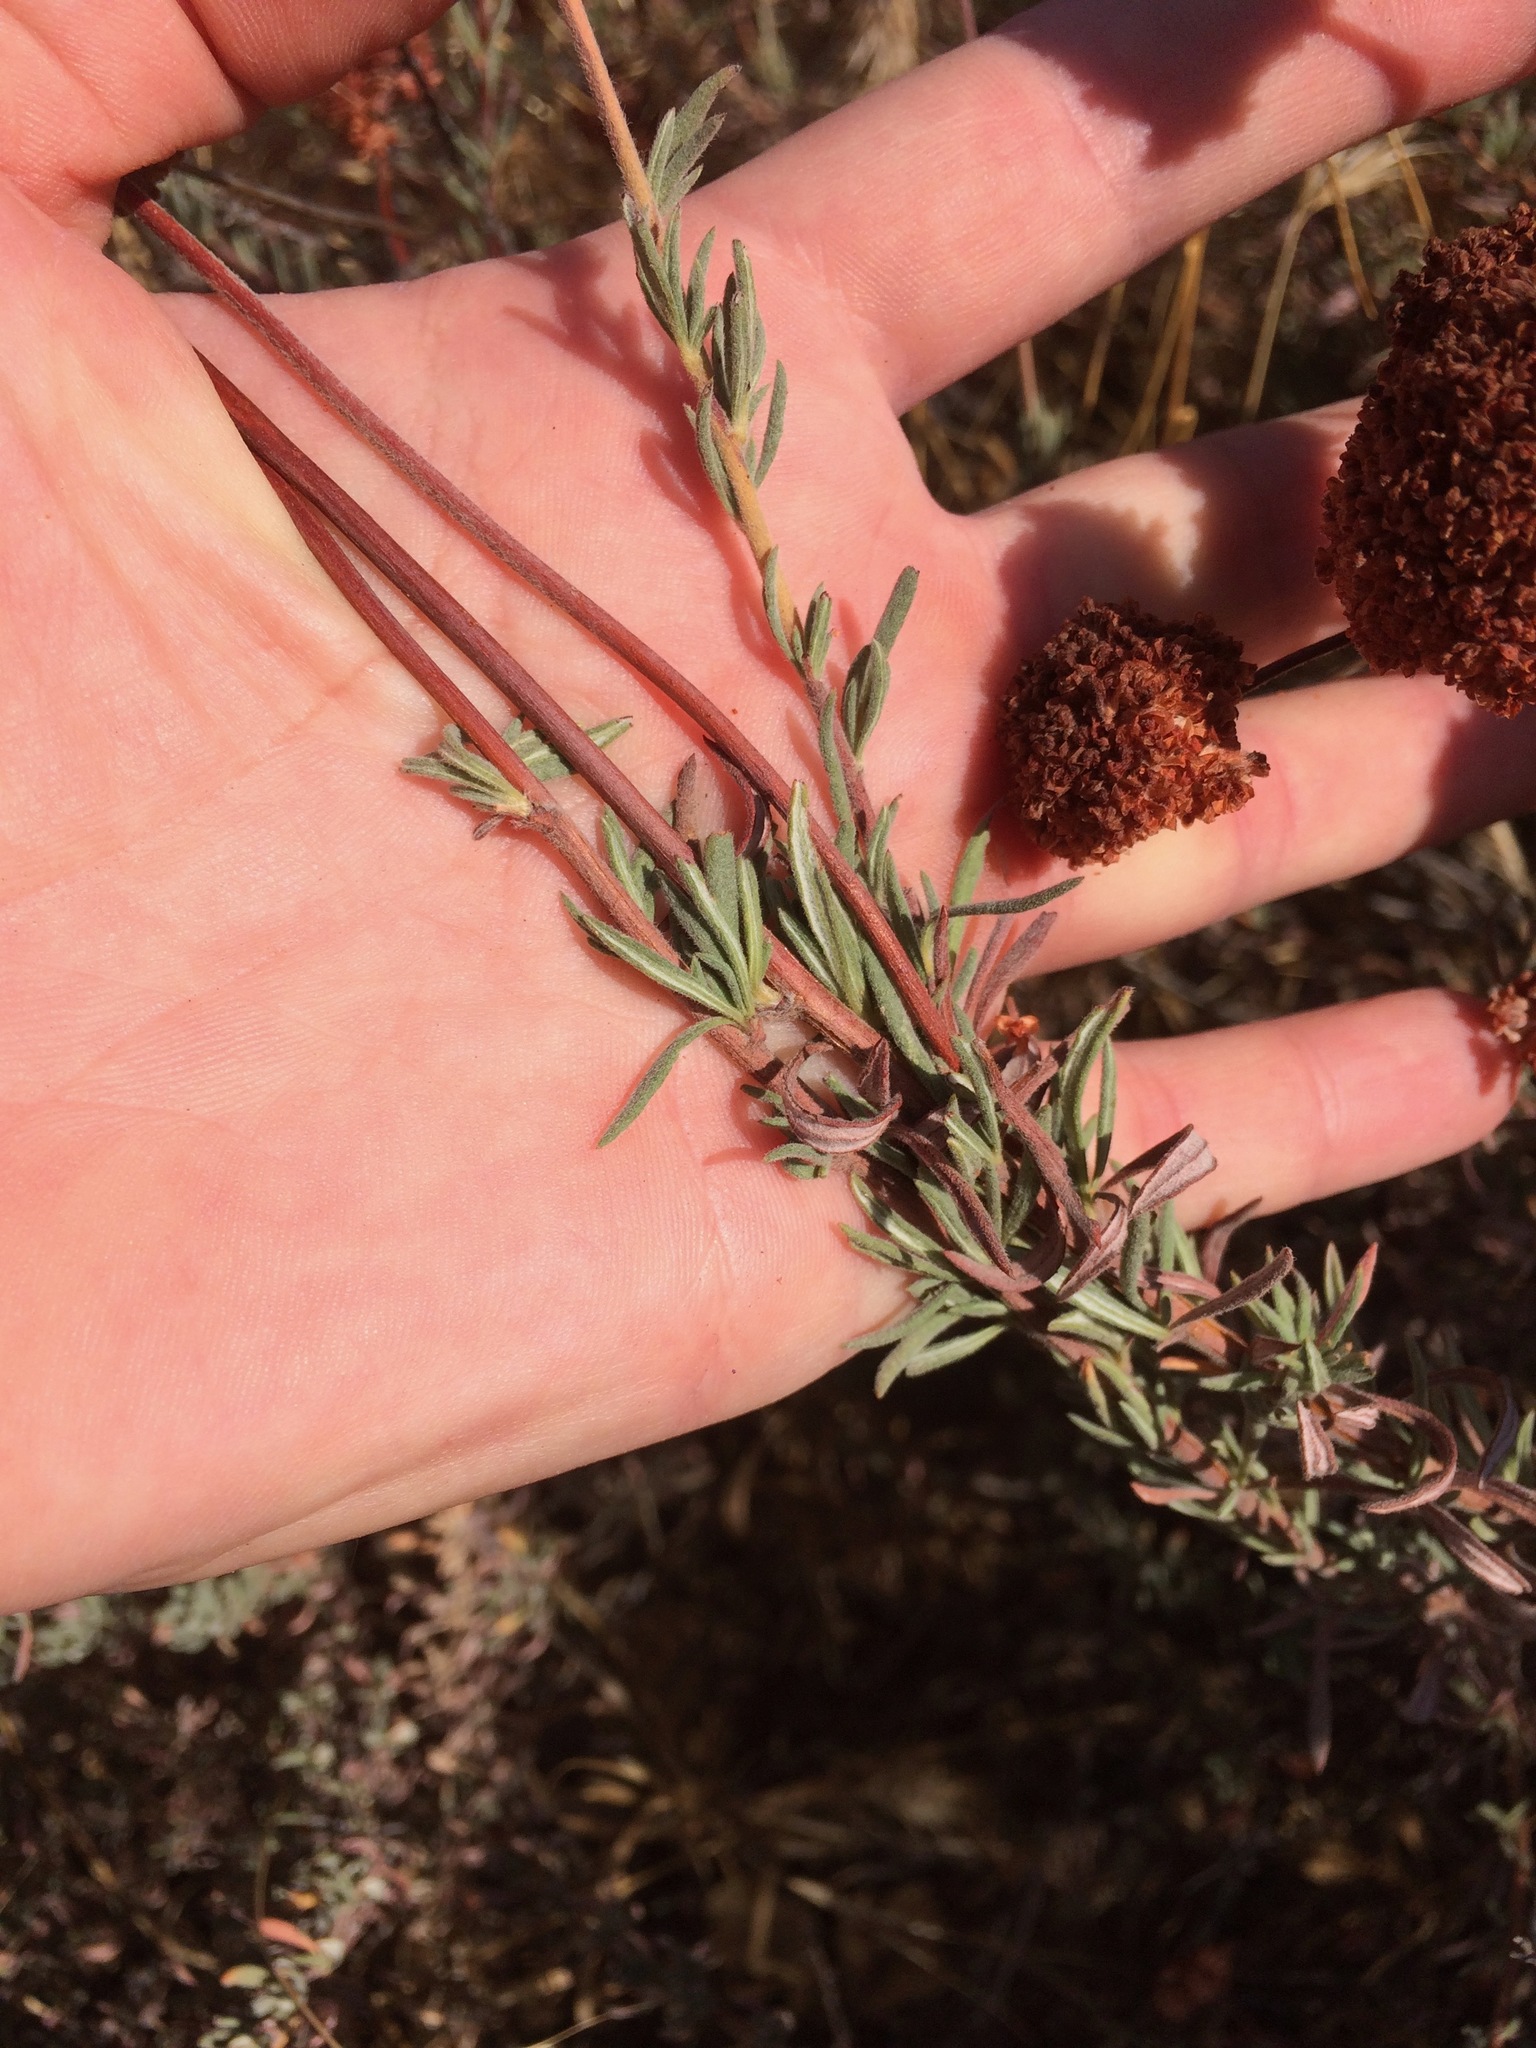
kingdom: Plantae
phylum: Tracheophyta
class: Magnoliopsida
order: Caryophyllales
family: Polygonaceae
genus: Eriogonum
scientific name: Eriogonum fasciculatum
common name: California wild buckwheat
